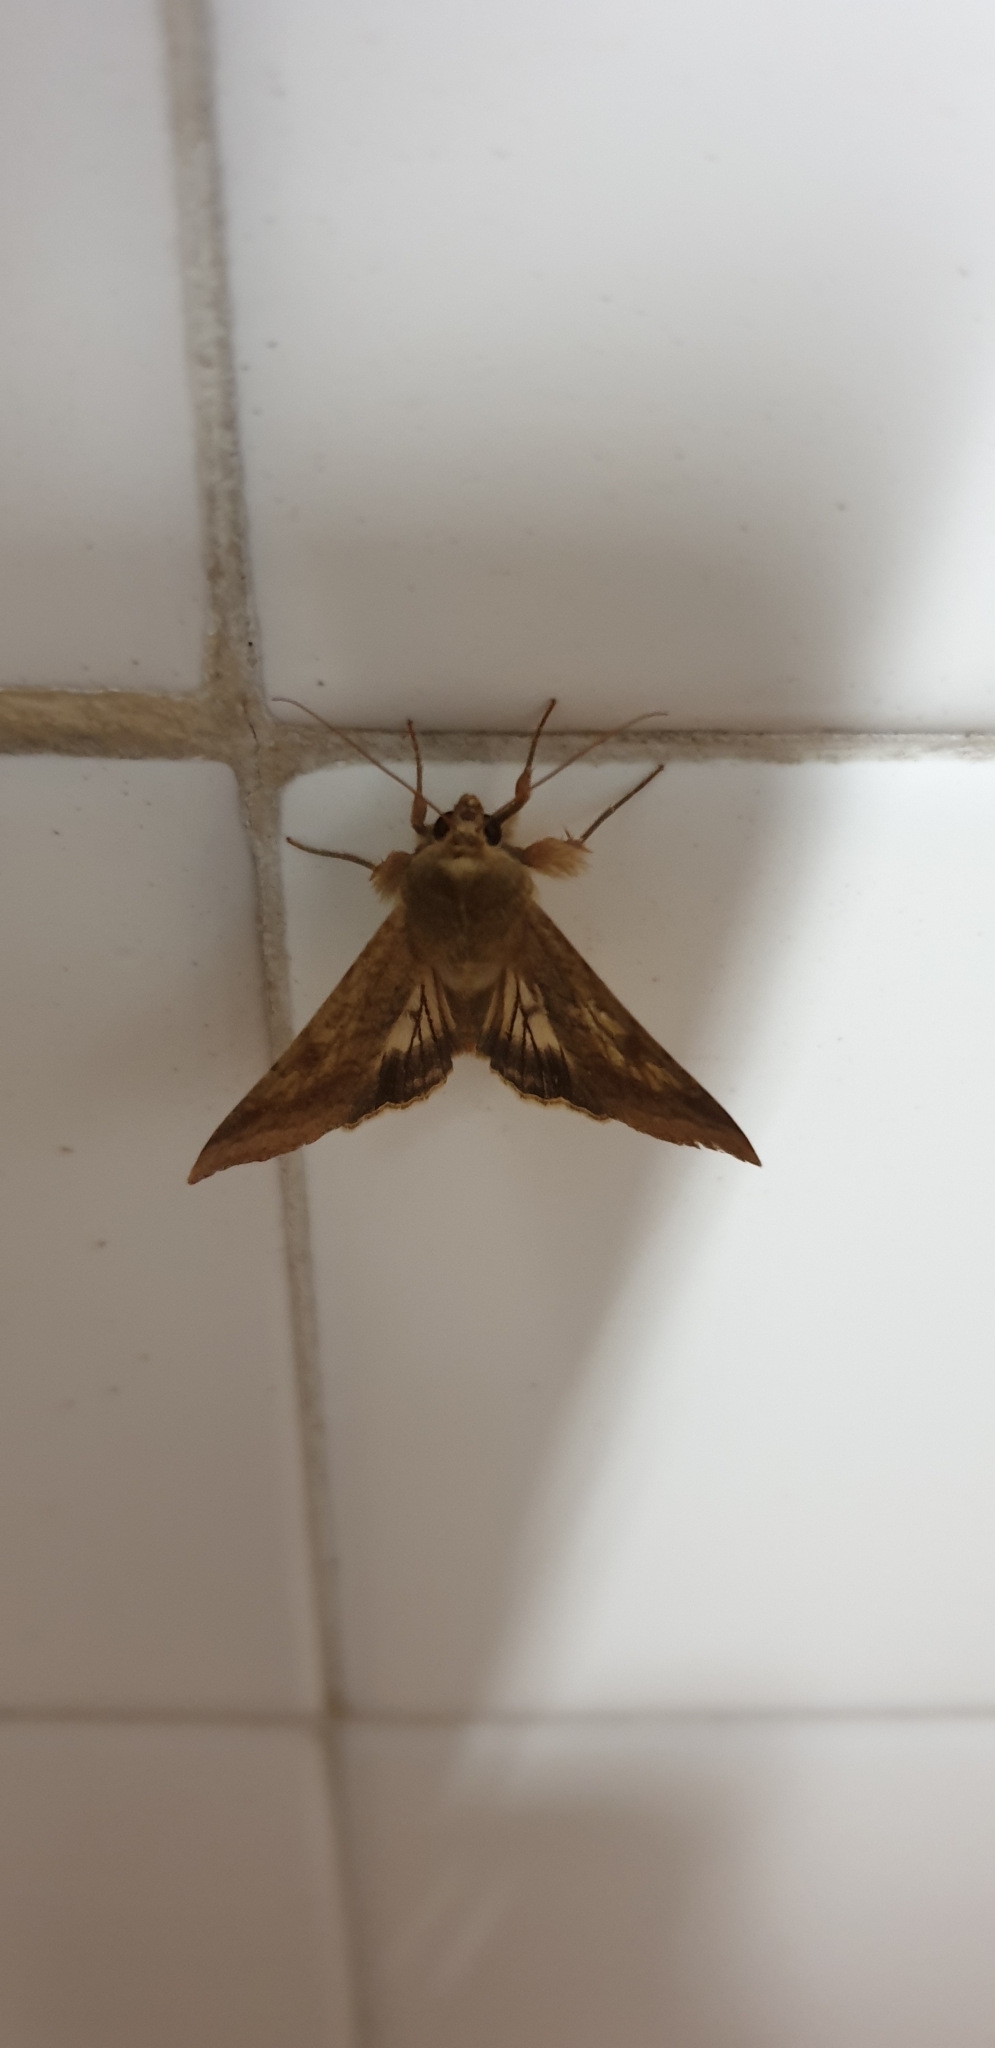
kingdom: Animalia
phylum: Arthropoda
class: Insecta
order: Lepidoptera
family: Noctuidae
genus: Helicoverpa
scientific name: Helicoverpa armigera
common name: Cotton bollworm
